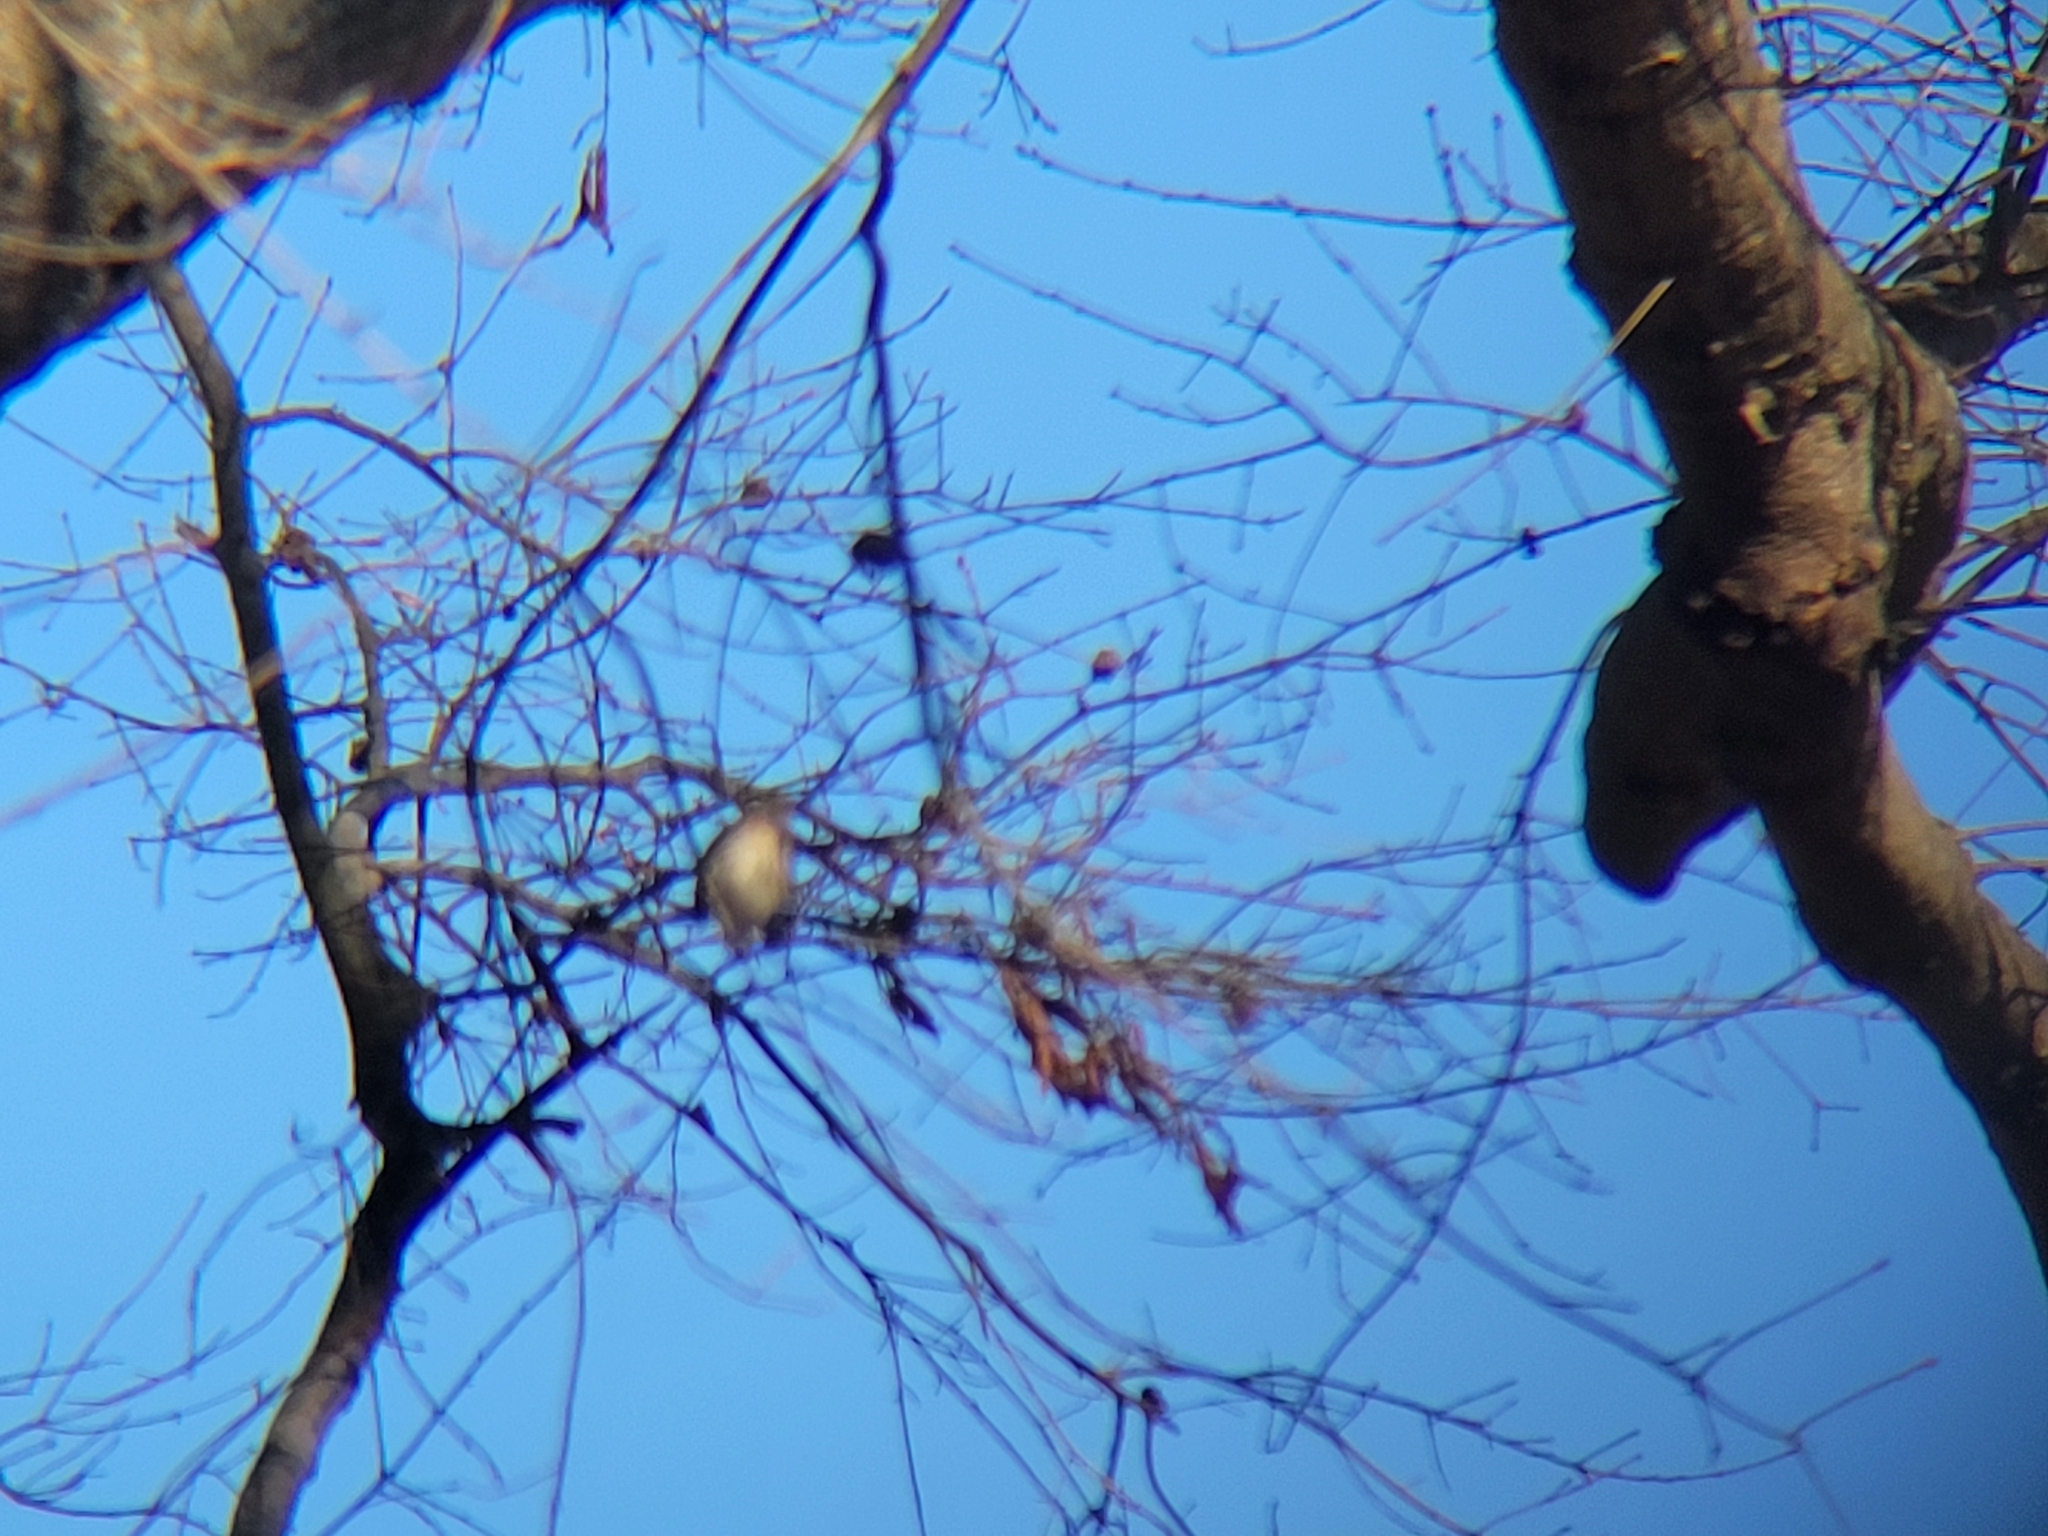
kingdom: Animalia
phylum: Chordata
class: Aves
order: Passeriformes
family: Parulidae
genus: Setophaga
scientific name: Setophaga coronata
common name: Myrtle warbler
